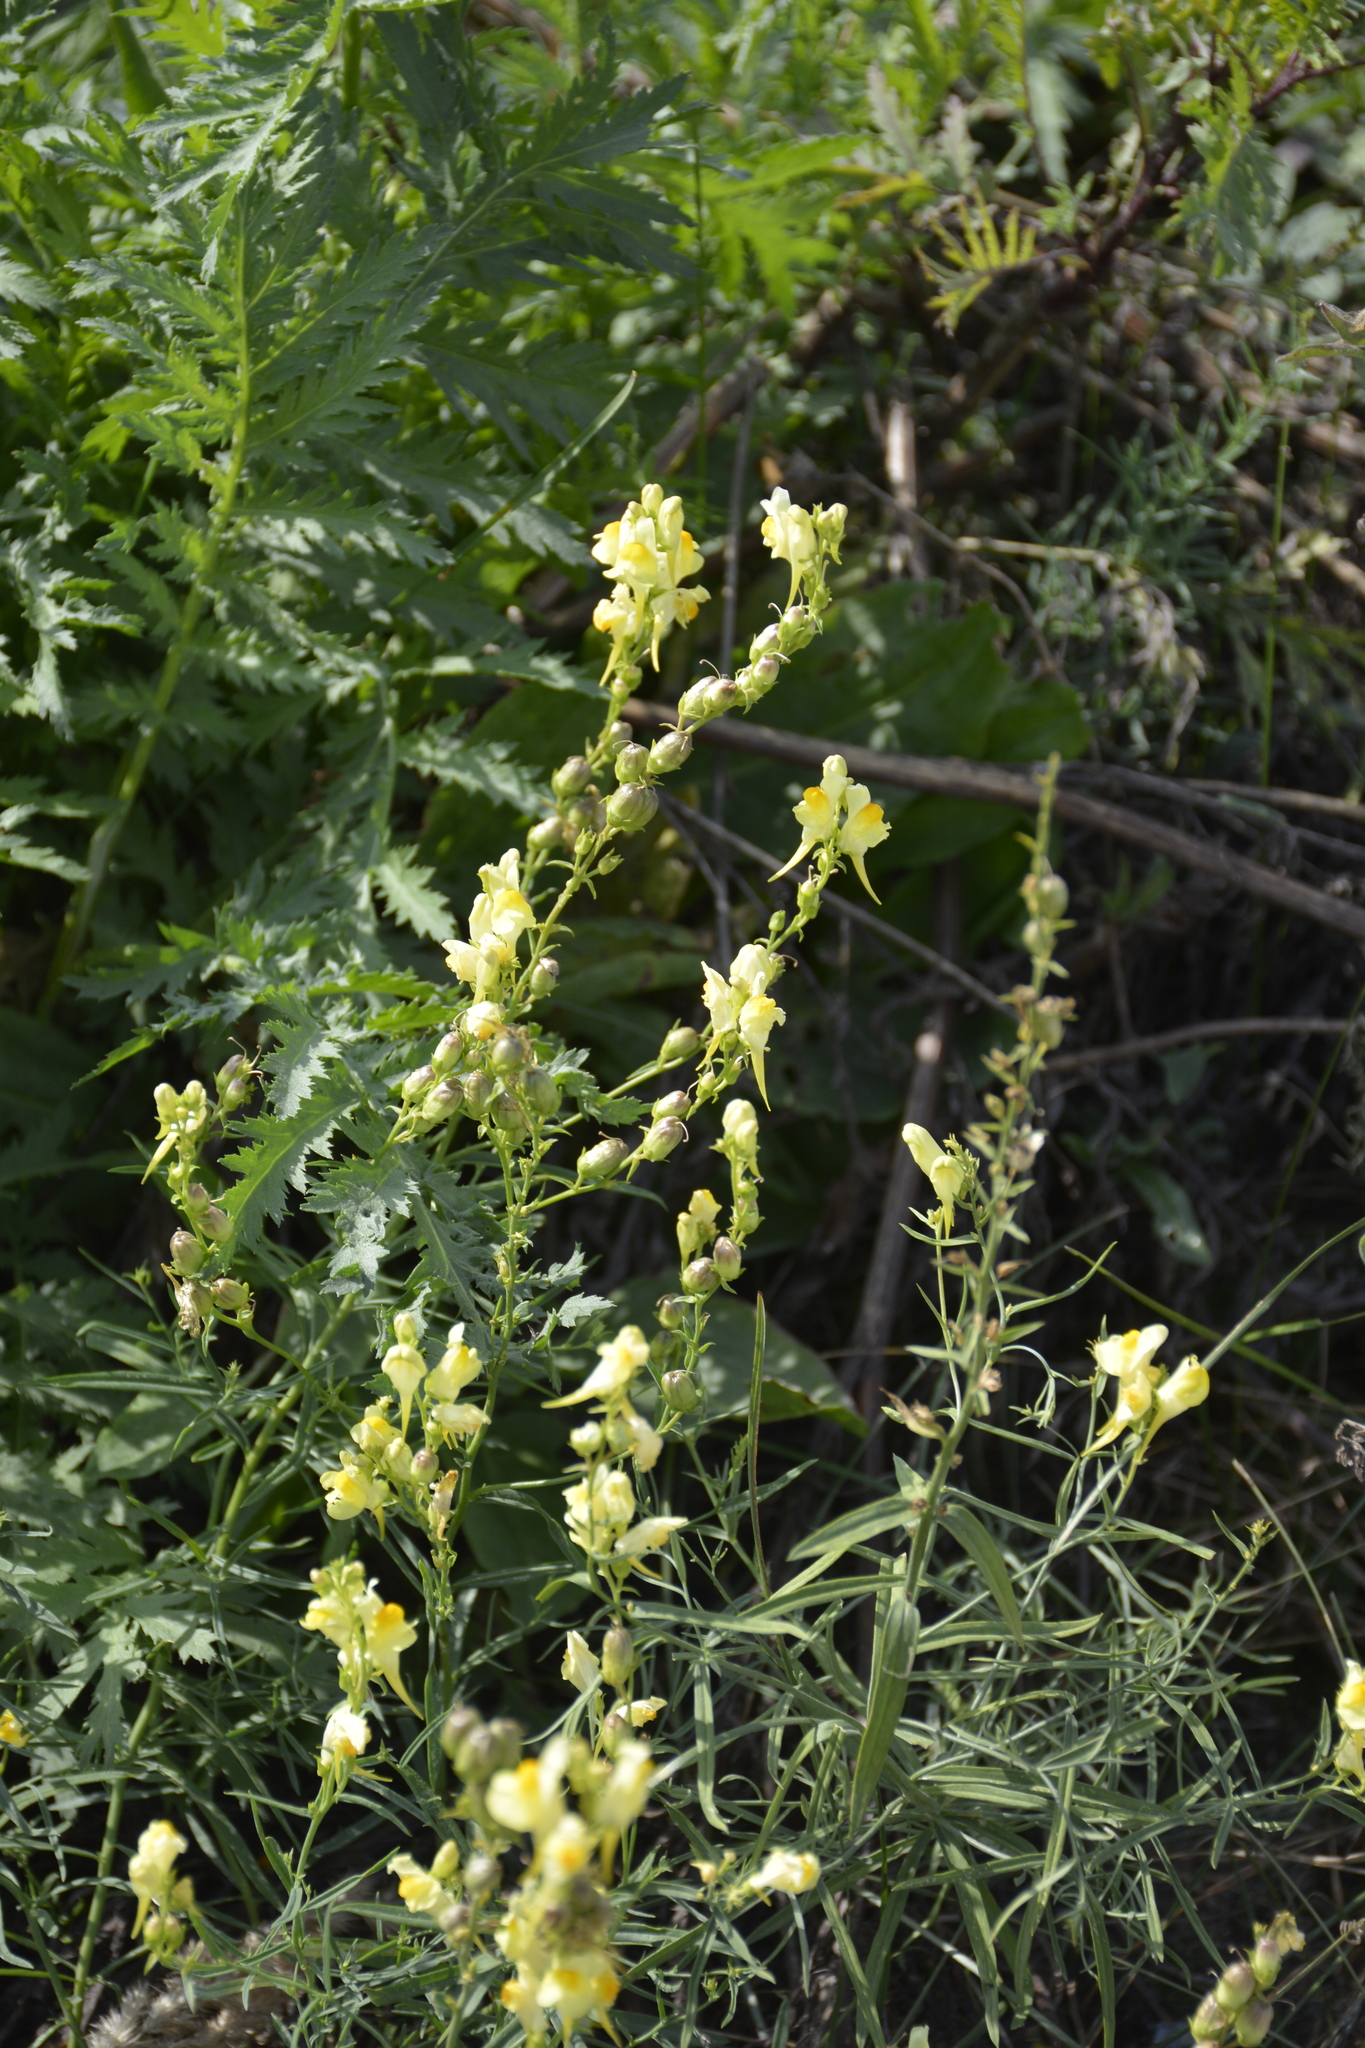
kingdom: Plantae
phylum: Tracheophyta
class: Magnoliopsida
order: Lamiales
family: Plantaginaceae
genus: Linaria
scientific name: Linaria vulgaris
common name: Butter and eggs
